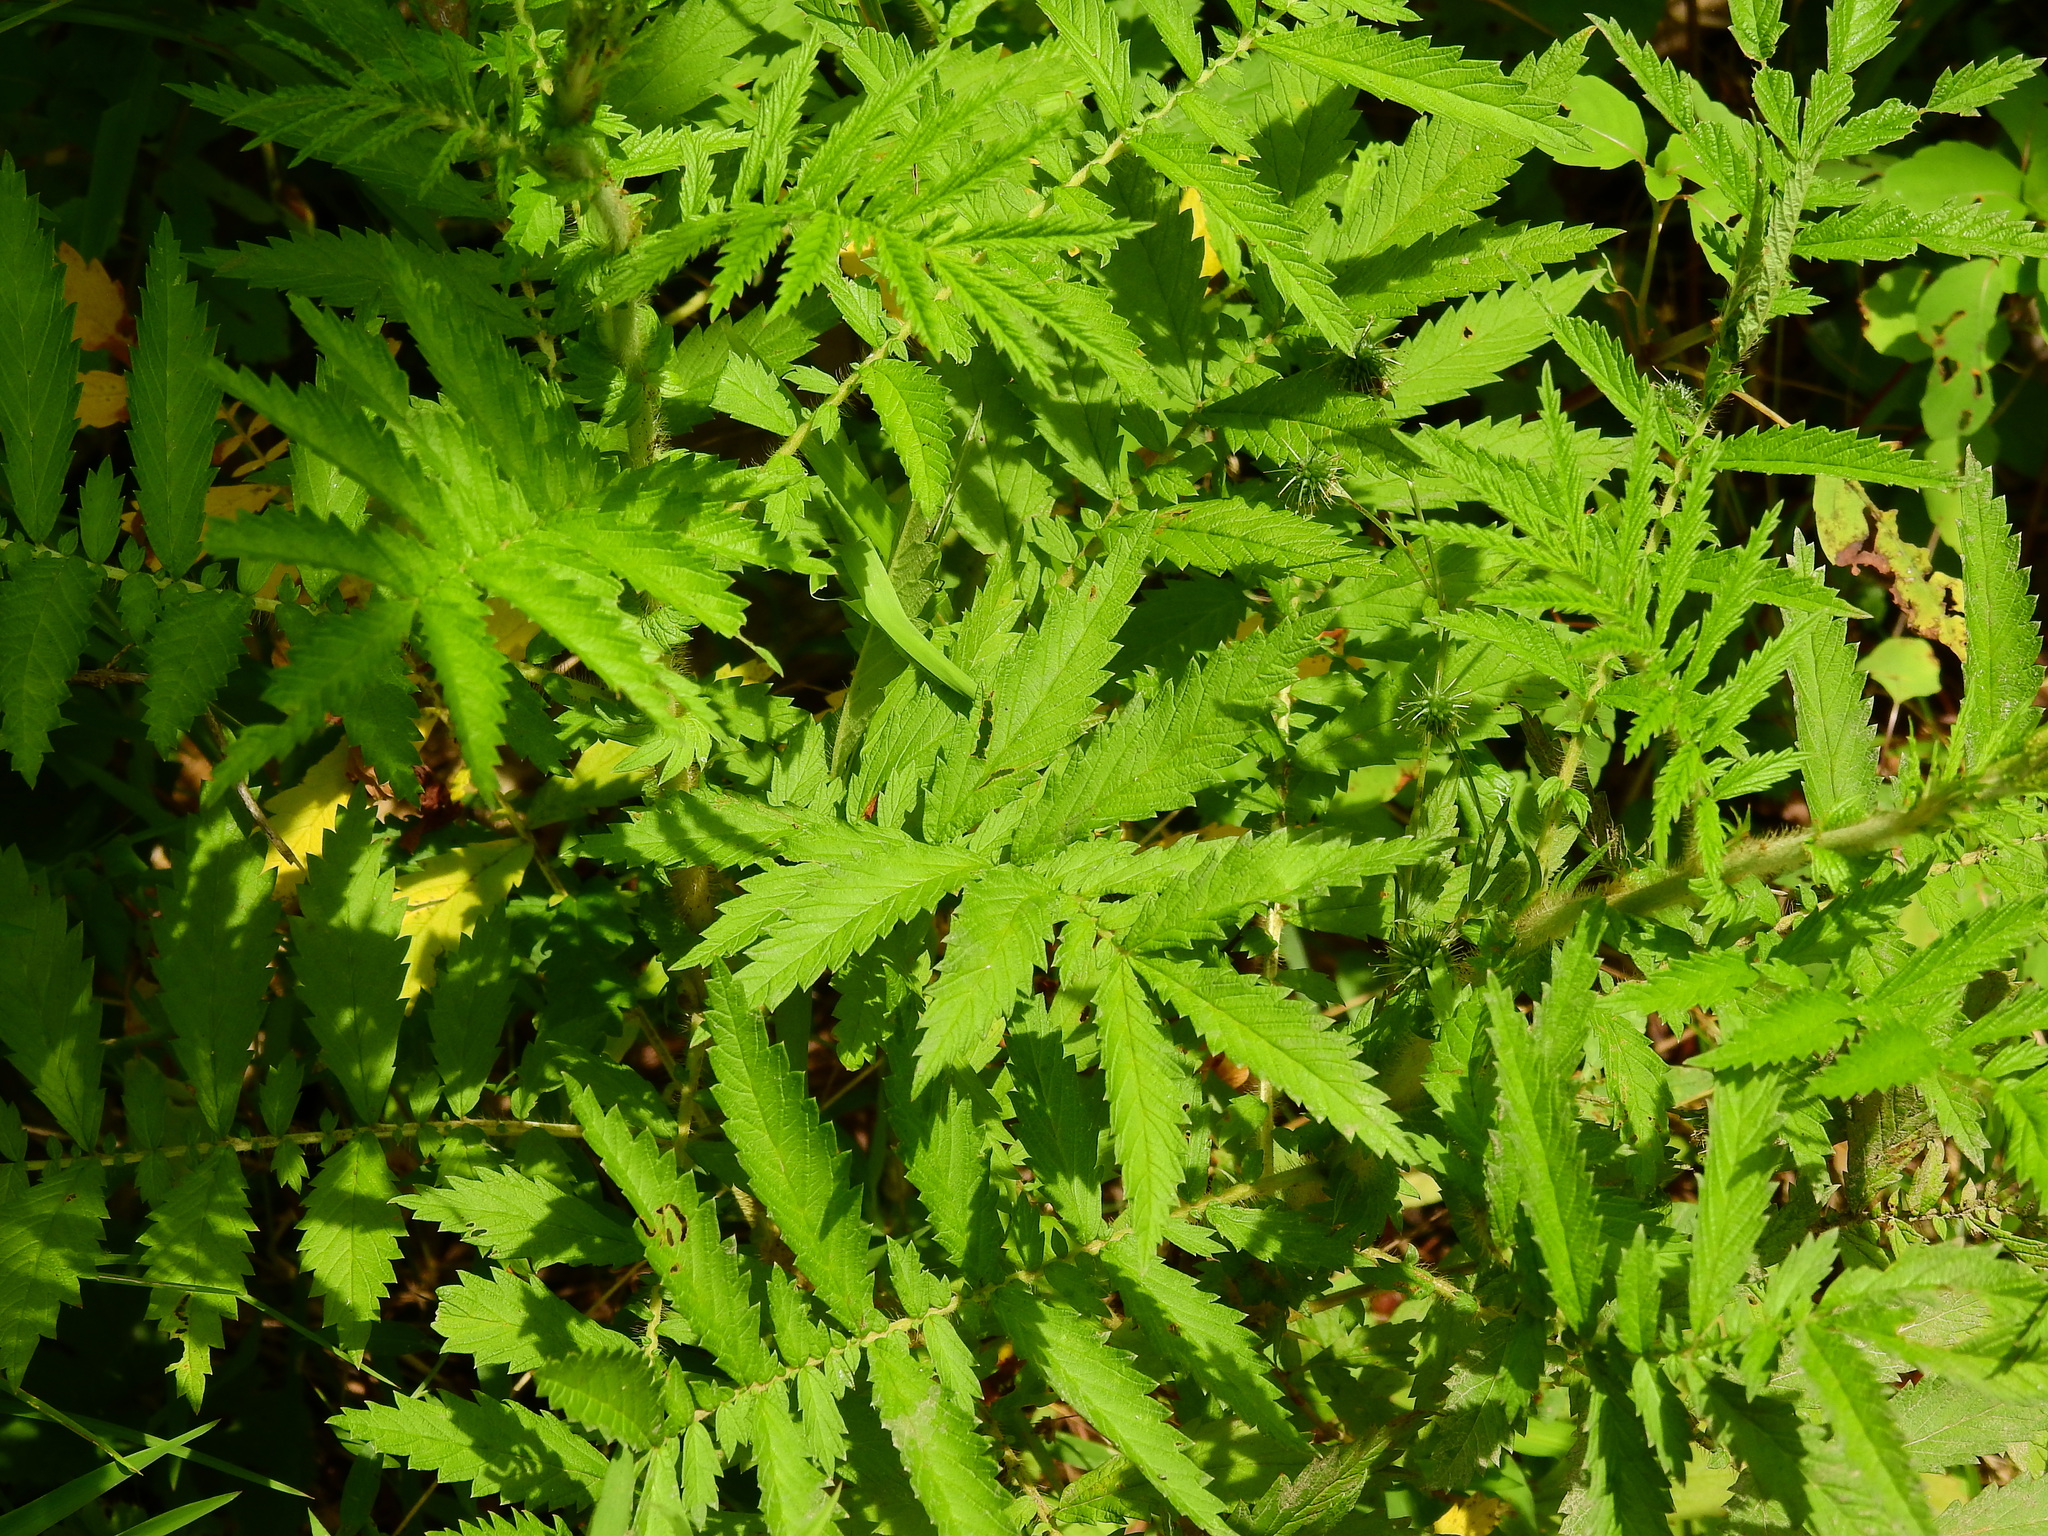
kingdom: Plantae
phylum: Tracheophyta
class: Magnoliopsida
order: Rosales
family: Rosaceae
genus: Agrimonia
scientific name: Agrimonia parviflora
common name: Harvest-lice
